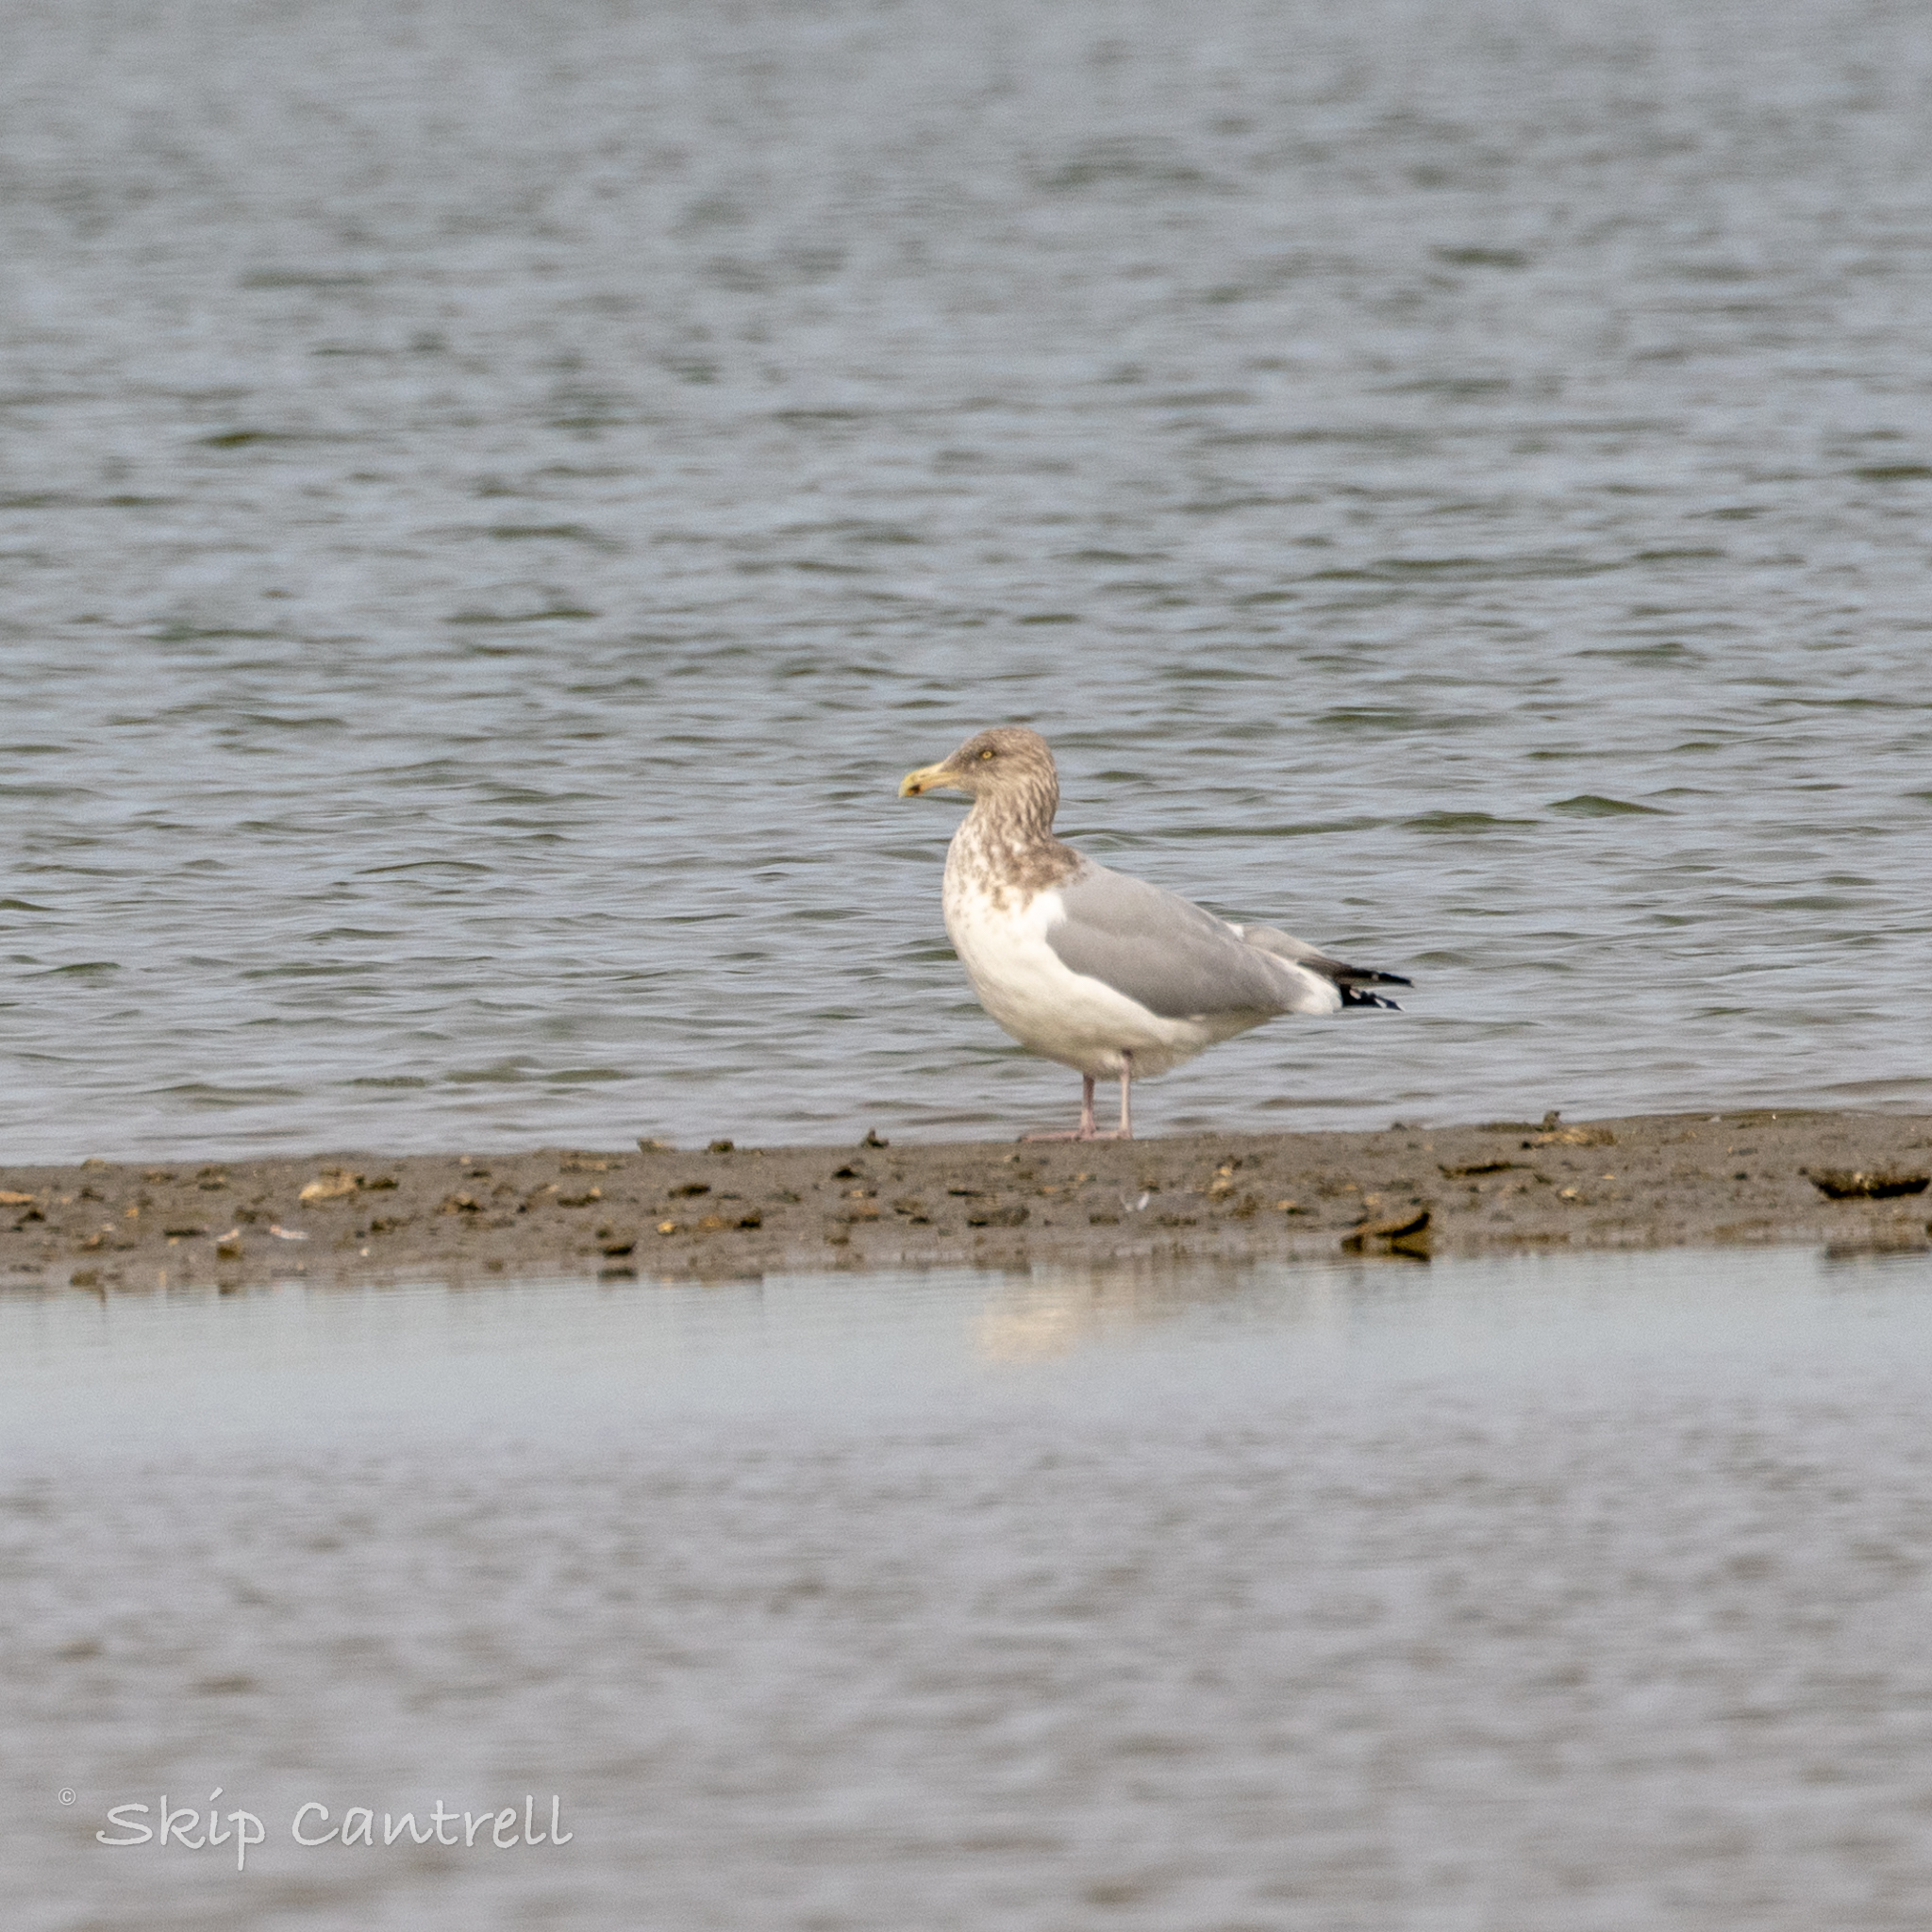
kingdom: Animalia
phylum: Chordata
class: Aves
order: Charadriiformes
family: Laridae
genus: Larus
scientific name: Larus argentatus
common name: Herring gull
